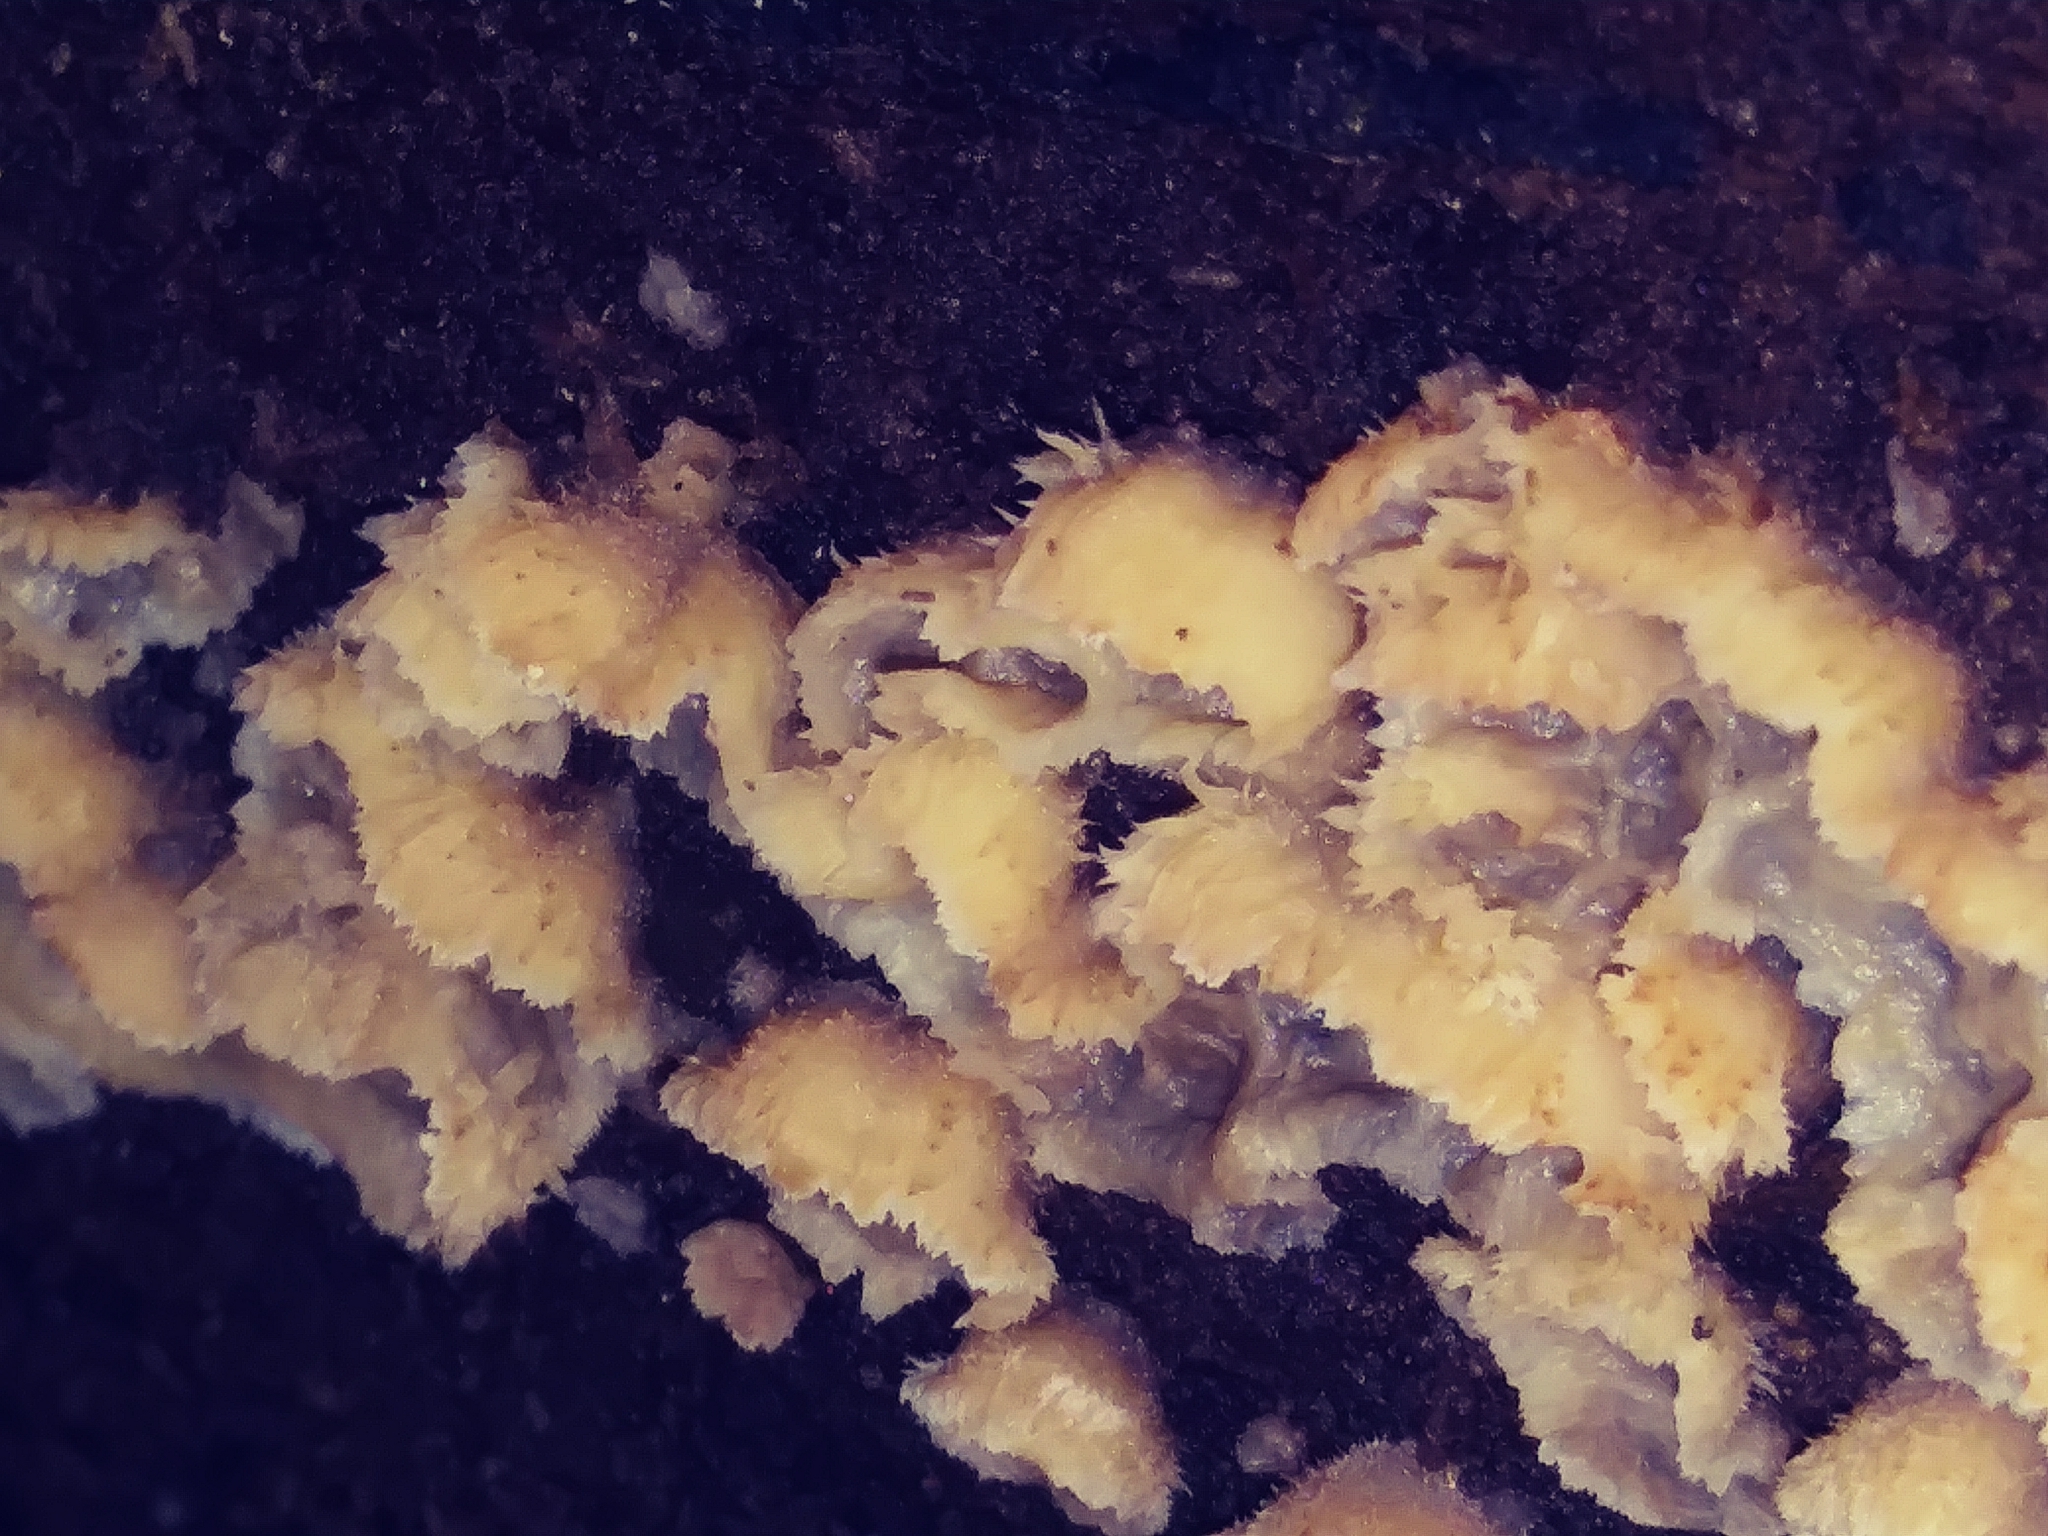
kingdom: Fungi
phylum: Basidiomycota
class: Agaricomycetes
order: Polyporales
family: Meruliaceae
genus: Phlebia
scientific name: Phlebia tremellosa
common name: Jelly rot
